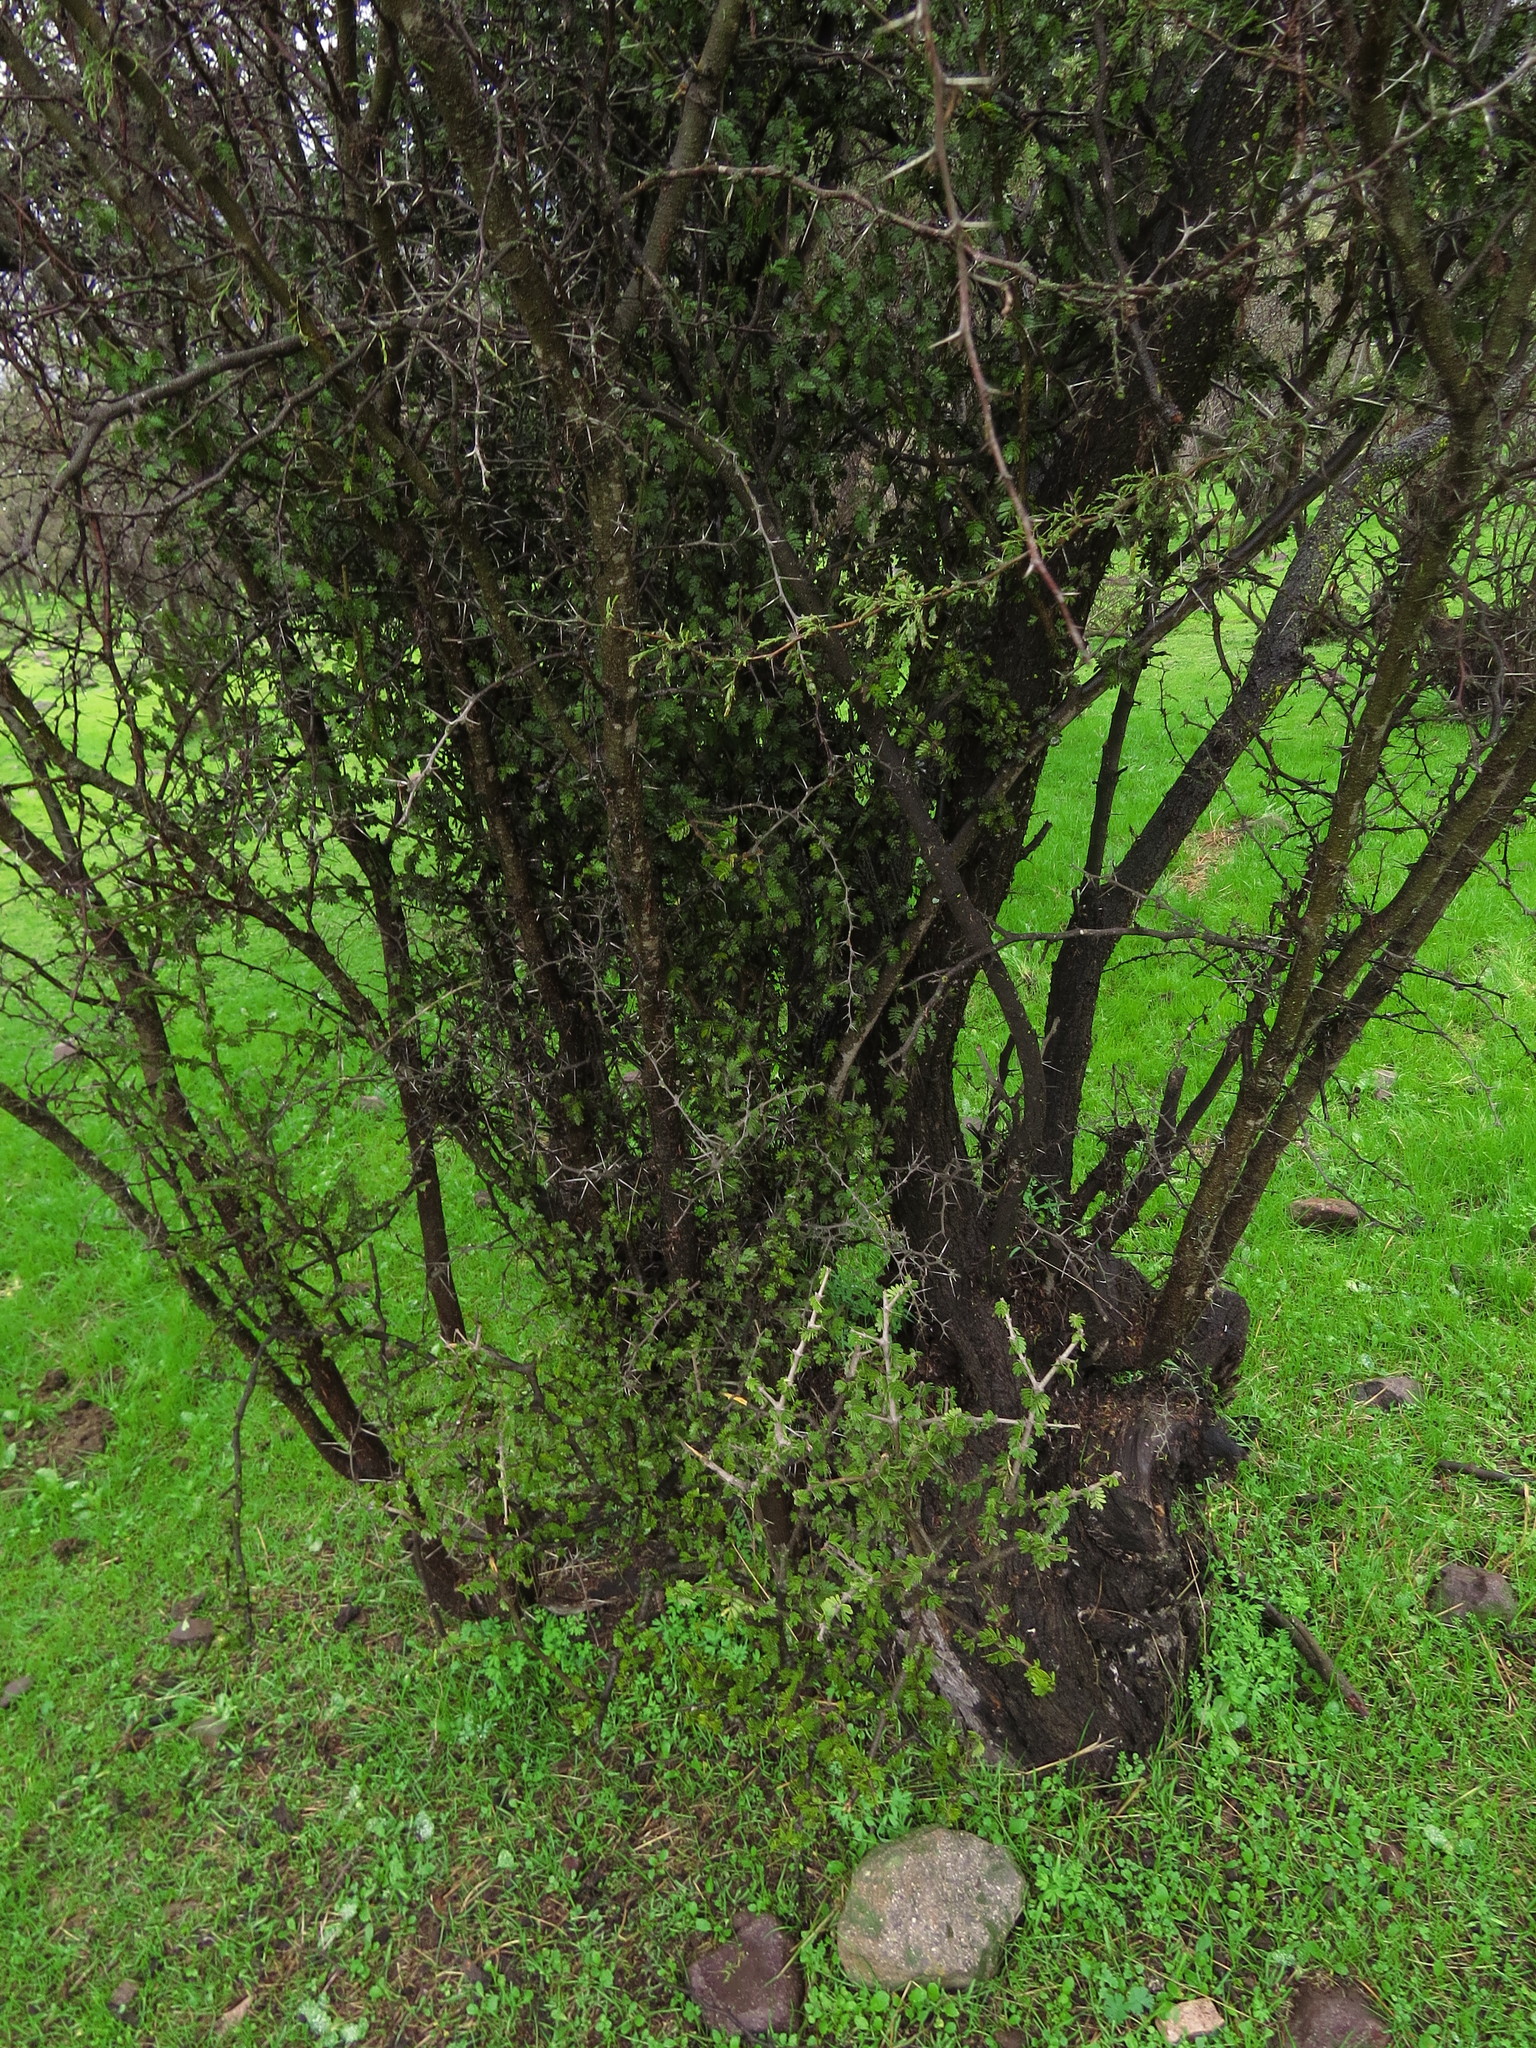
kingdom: Plantae
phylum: Tracheophyta
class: Magnoliopsida
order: Zygophyllales
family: Zygophyllaceae
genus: Porlieria
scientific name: Porlieria chilensis
